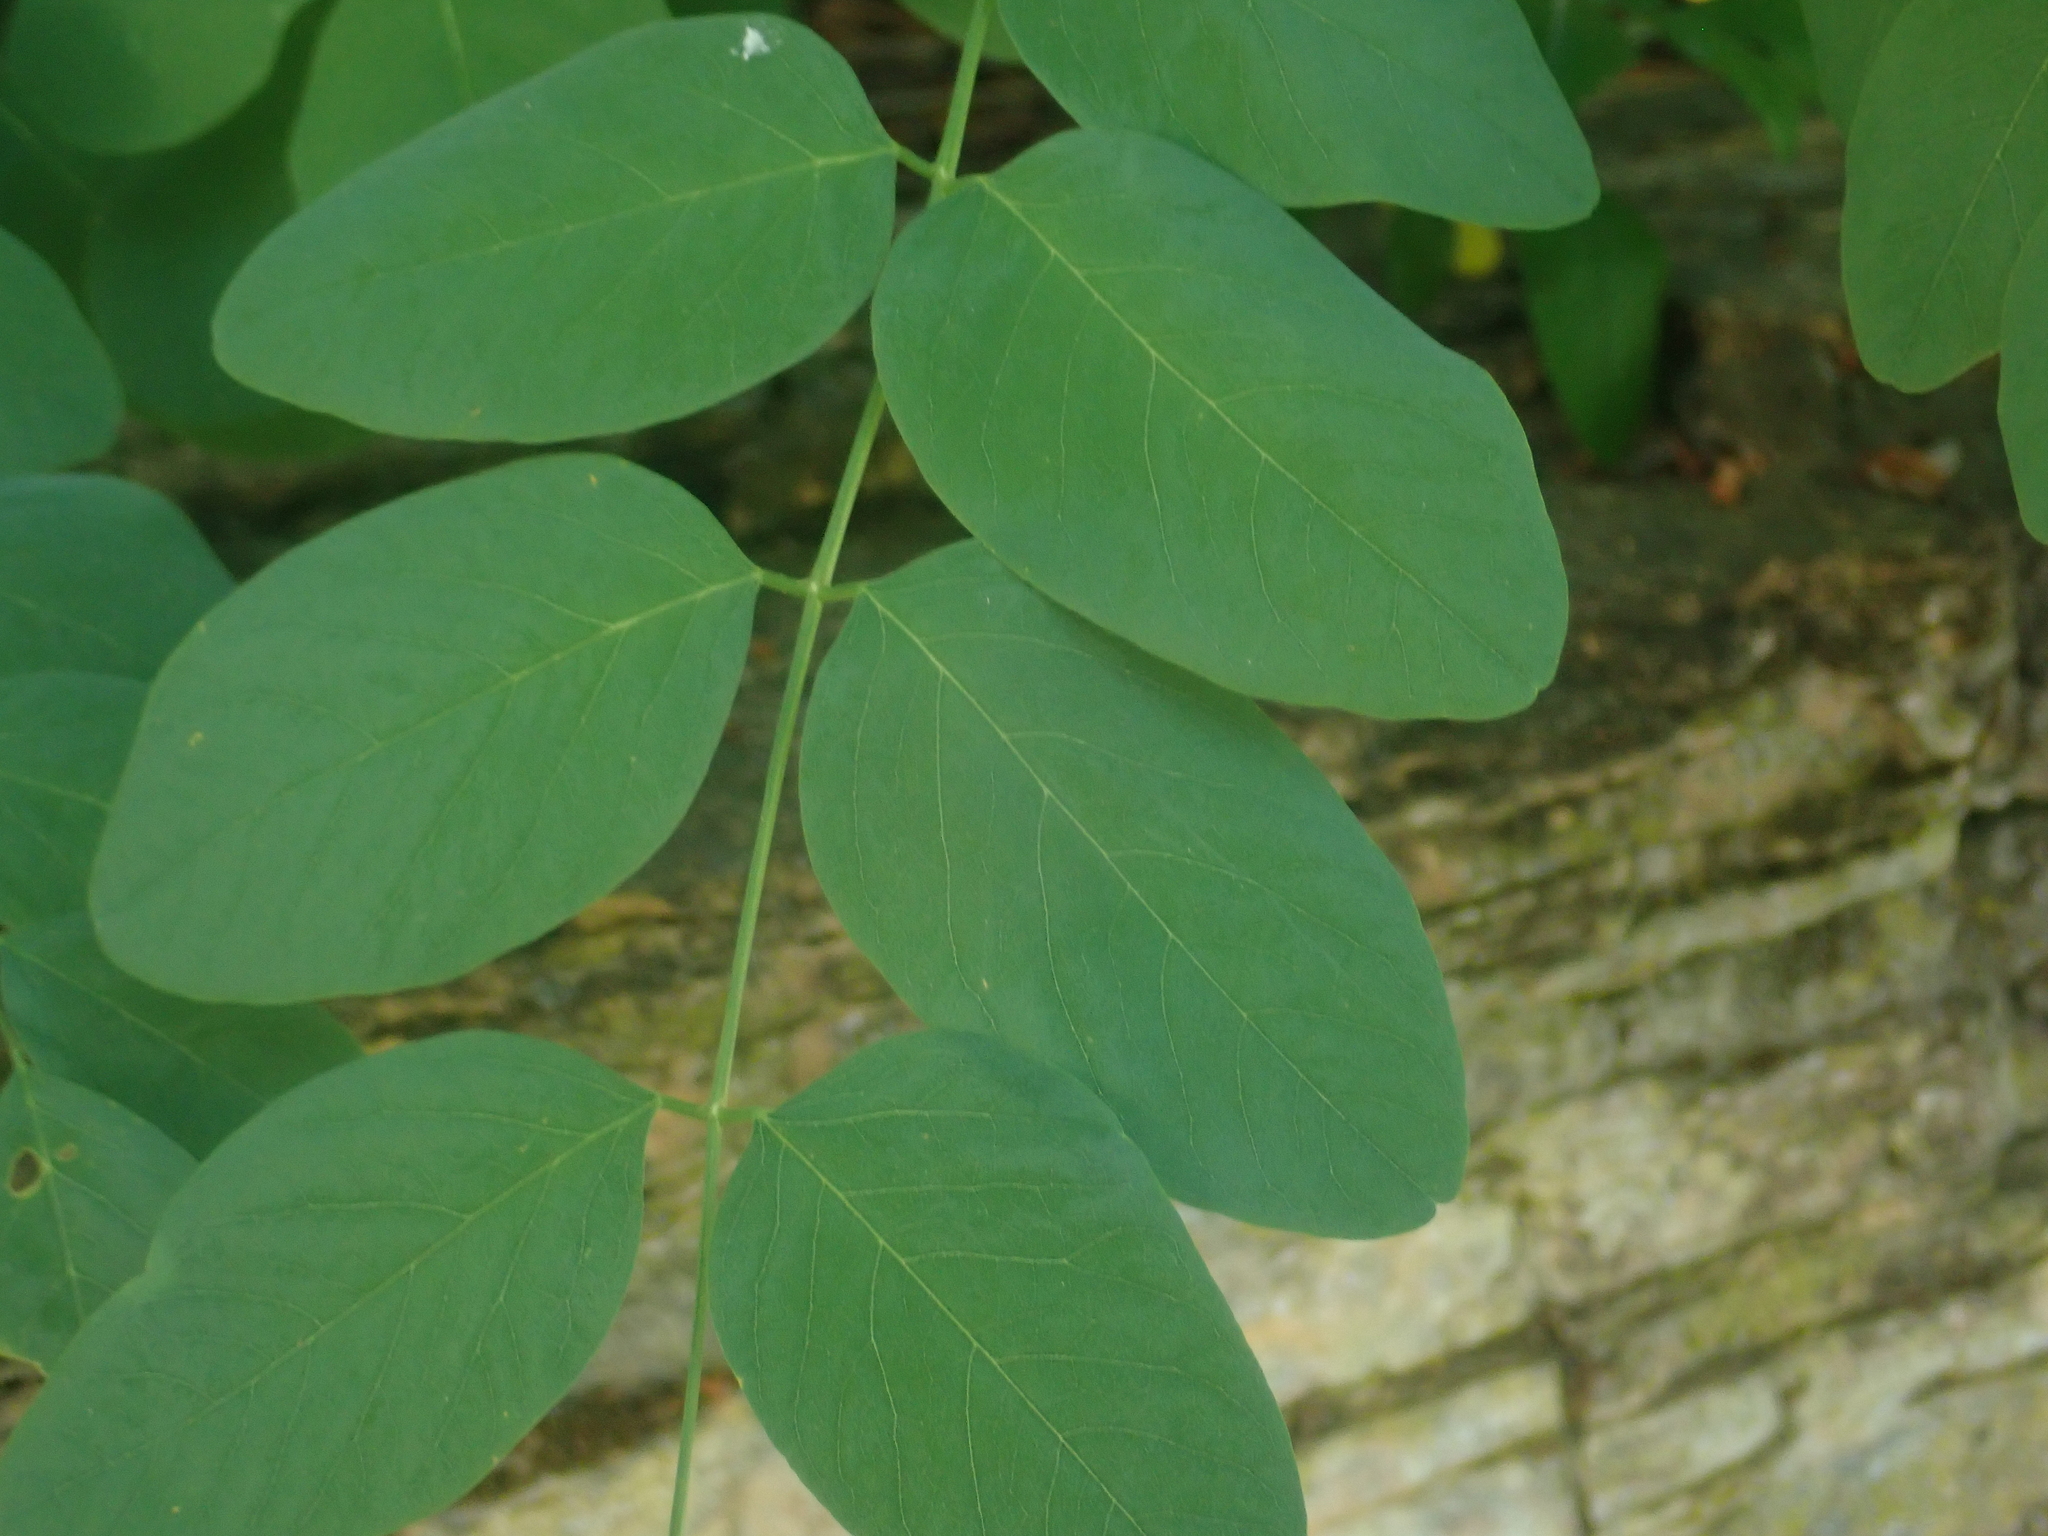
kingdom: Plantae
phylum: Tracheophyta
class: Magnoliopsida
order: Fabales
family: Fabaceae
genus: Robinia
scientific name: Robinia pseudoacacia
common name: Black locust
